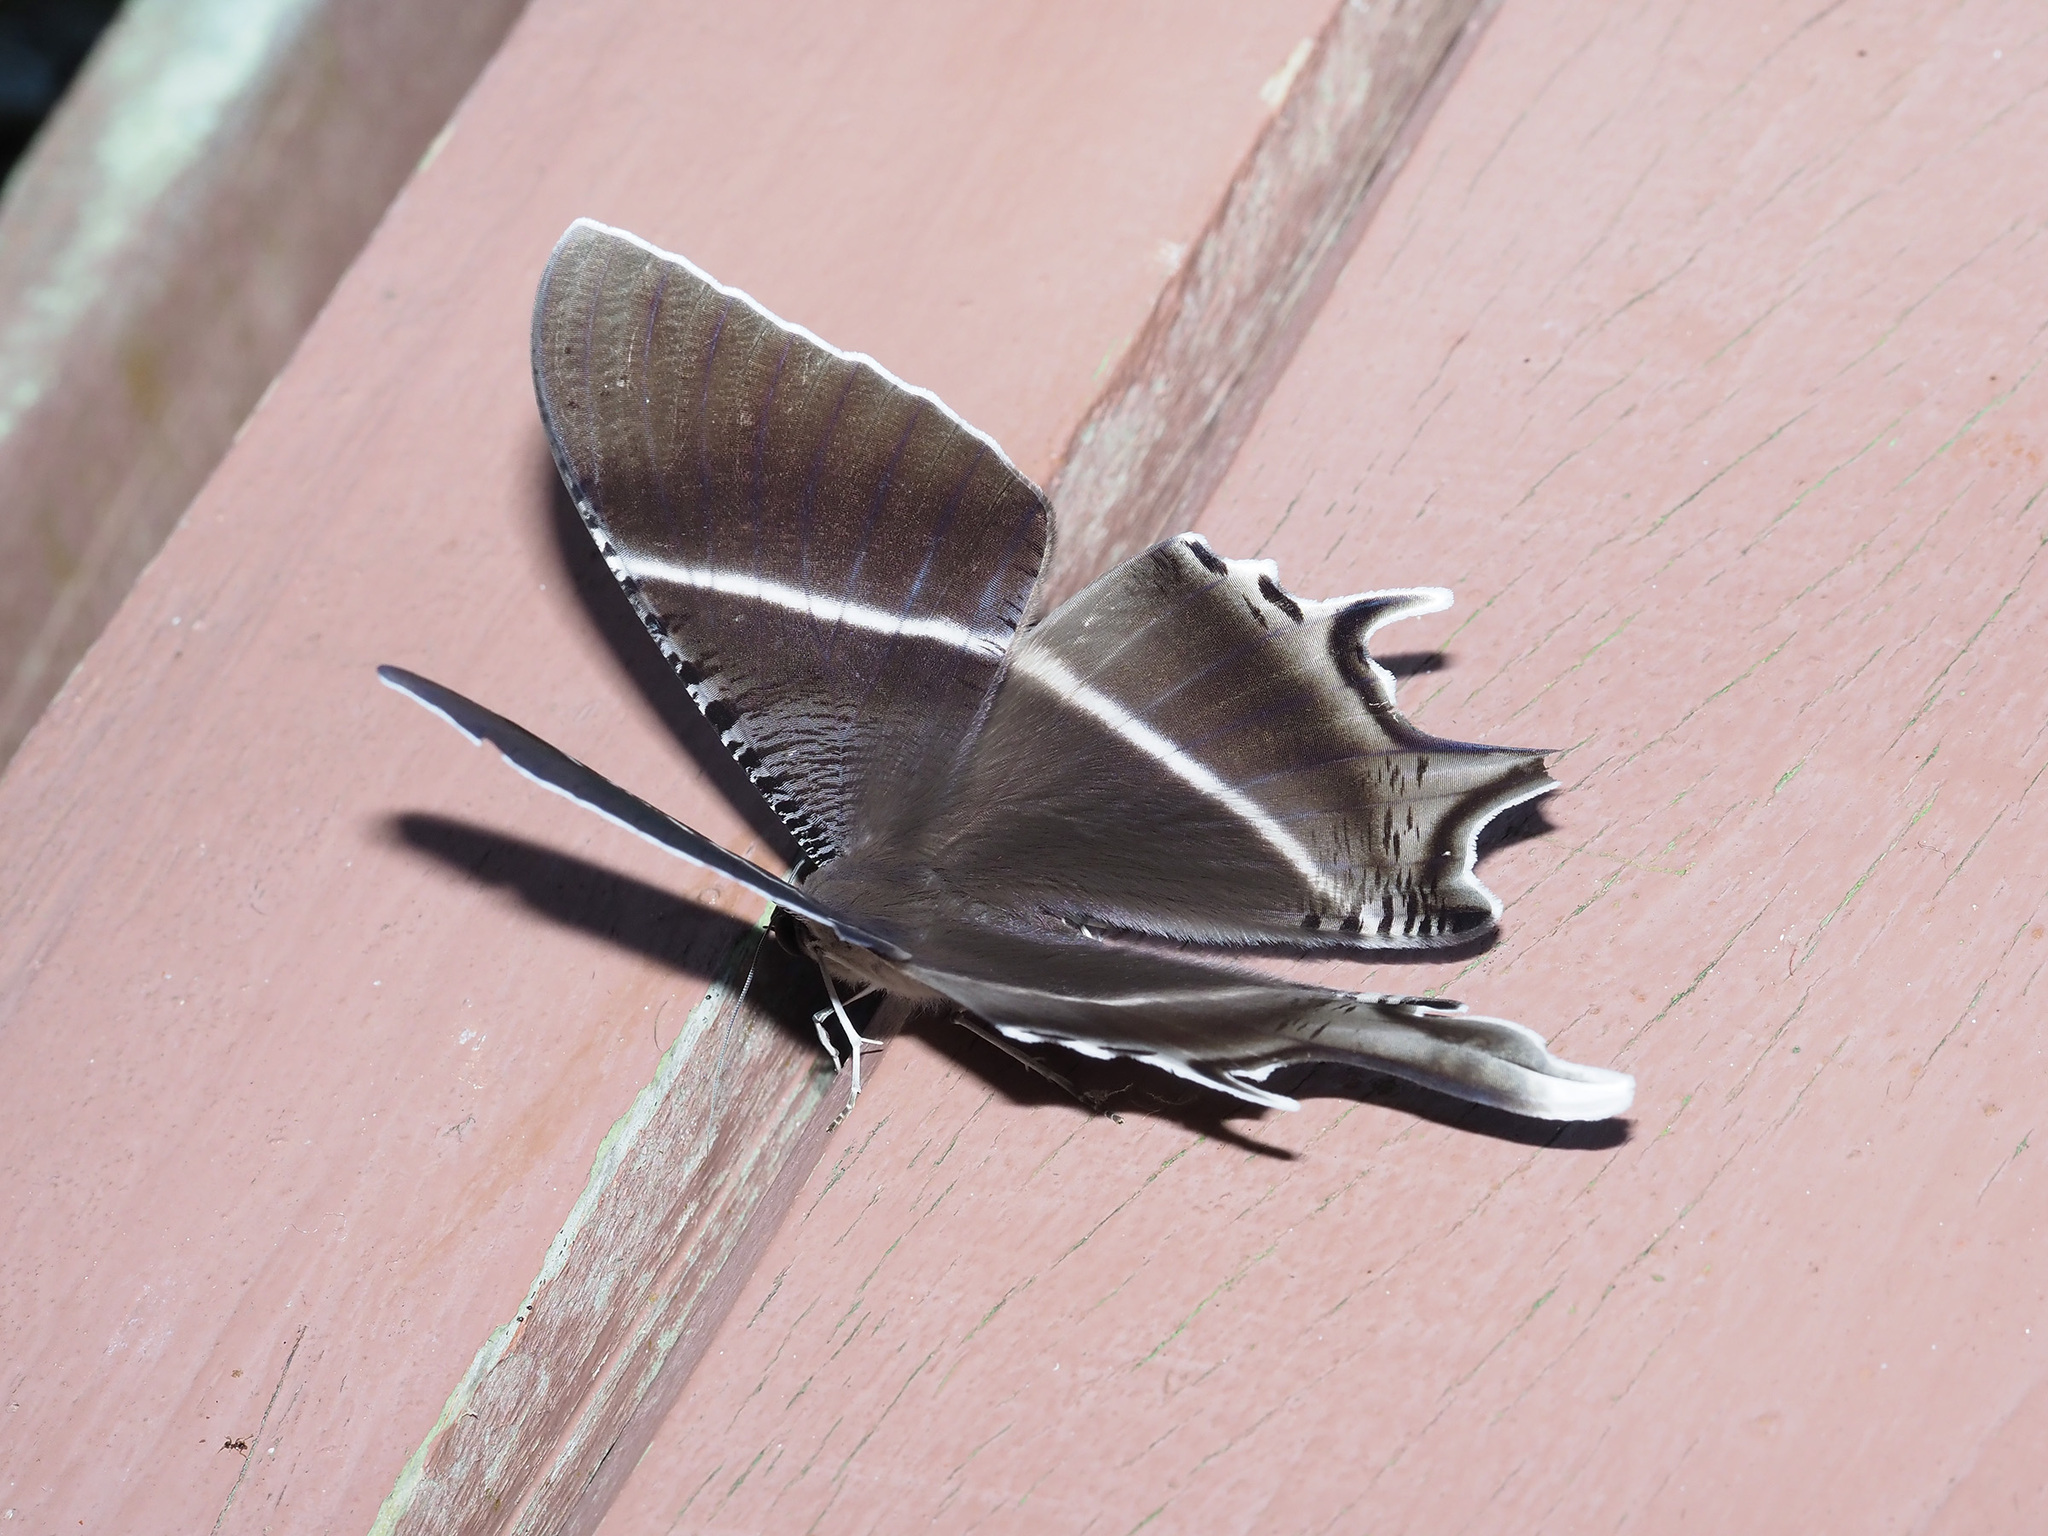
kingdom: Animalia
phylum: Arthropoda
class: Insecta
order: Lepidoptera
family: Uraniidae
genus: Lyssa
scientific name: Lyssa zampa
